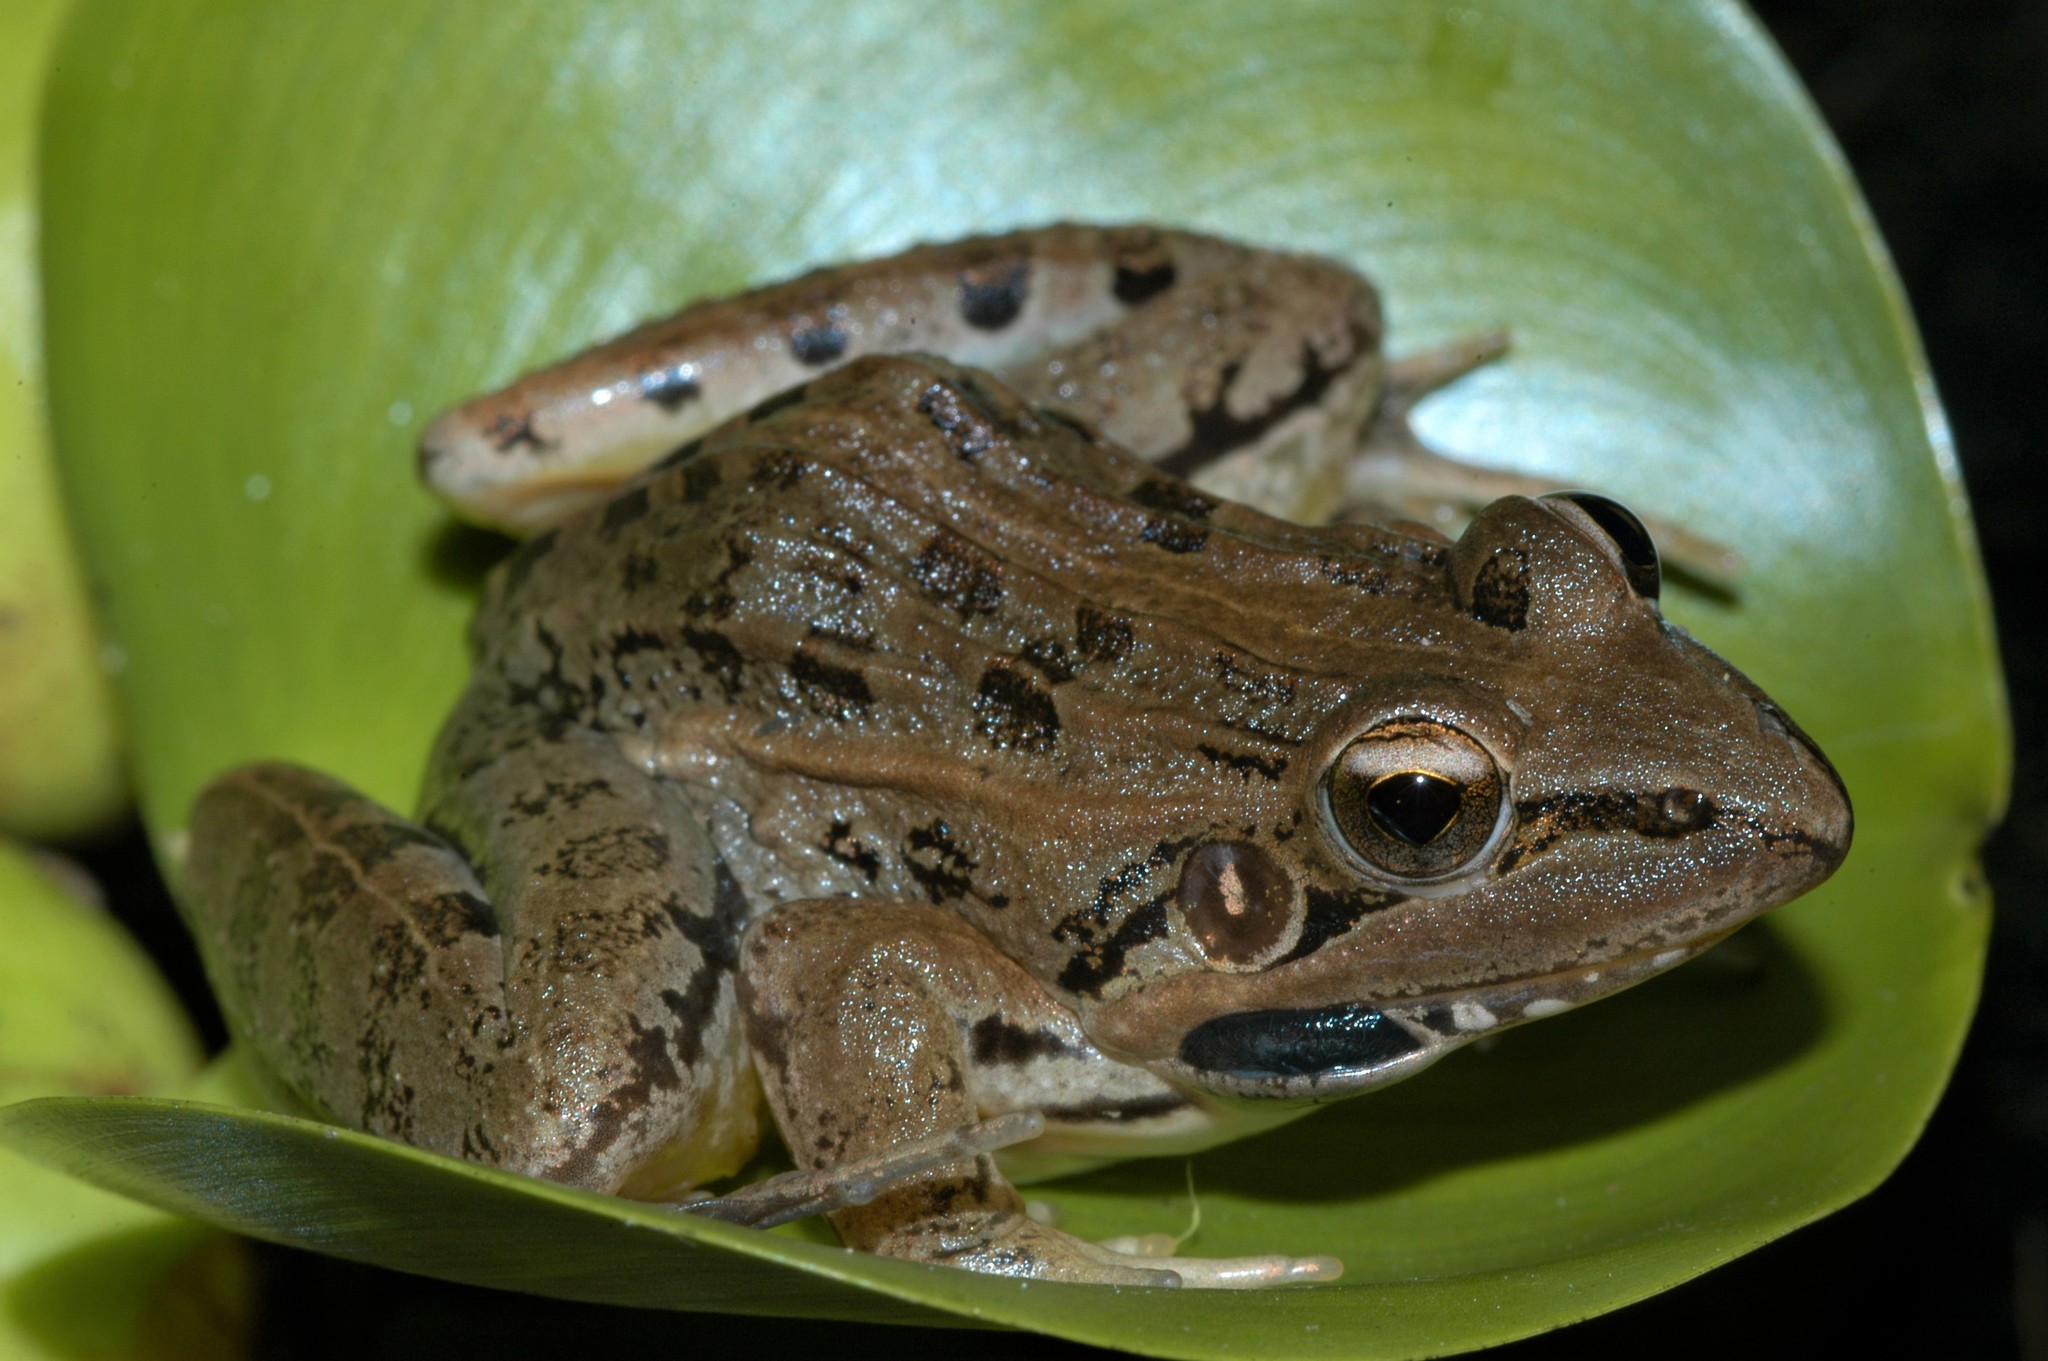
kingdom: Animalia
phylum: Chordata
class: Amphibia
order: Anura
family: Ptychadenidae
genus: Ptychadena
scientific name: Ptychadena mascareniensis
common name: Mascarene grass frog
